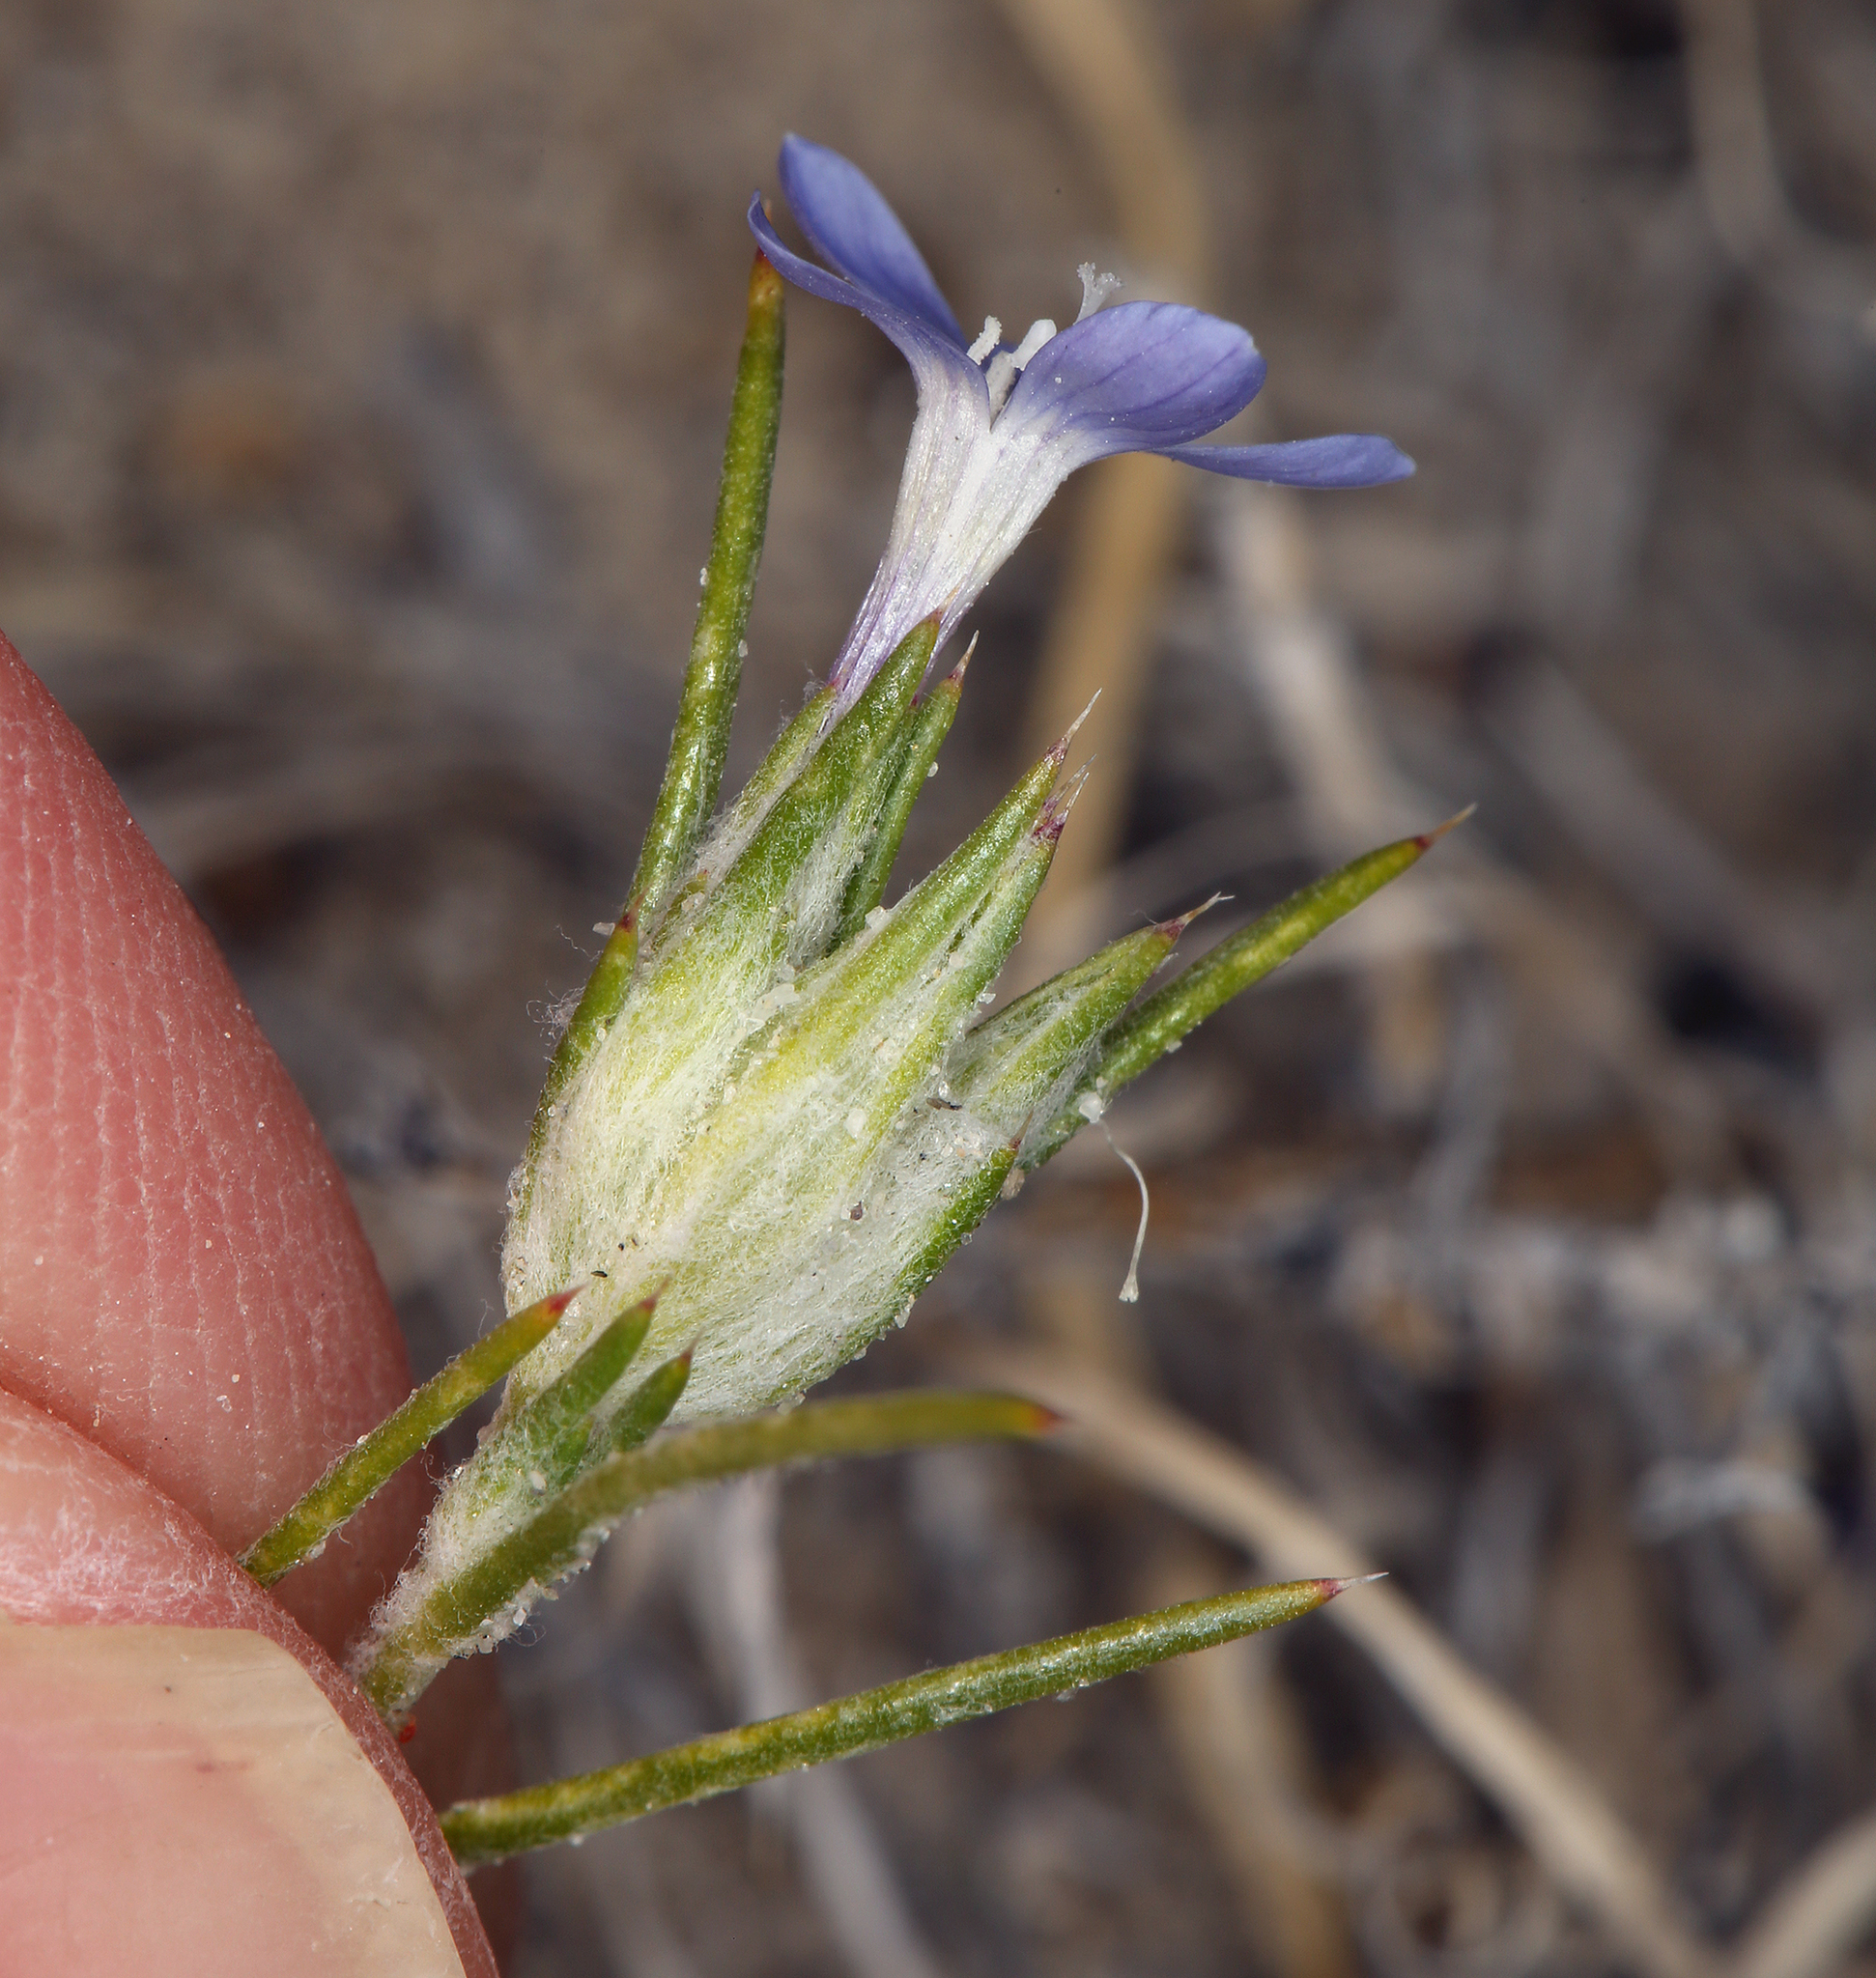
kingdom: Plantae
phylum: Tracheophyta
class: Magnoliopsida
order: Ericales
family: Polemoniaceae
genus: Eriastrum
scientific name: Eriastrum wilcoxii
